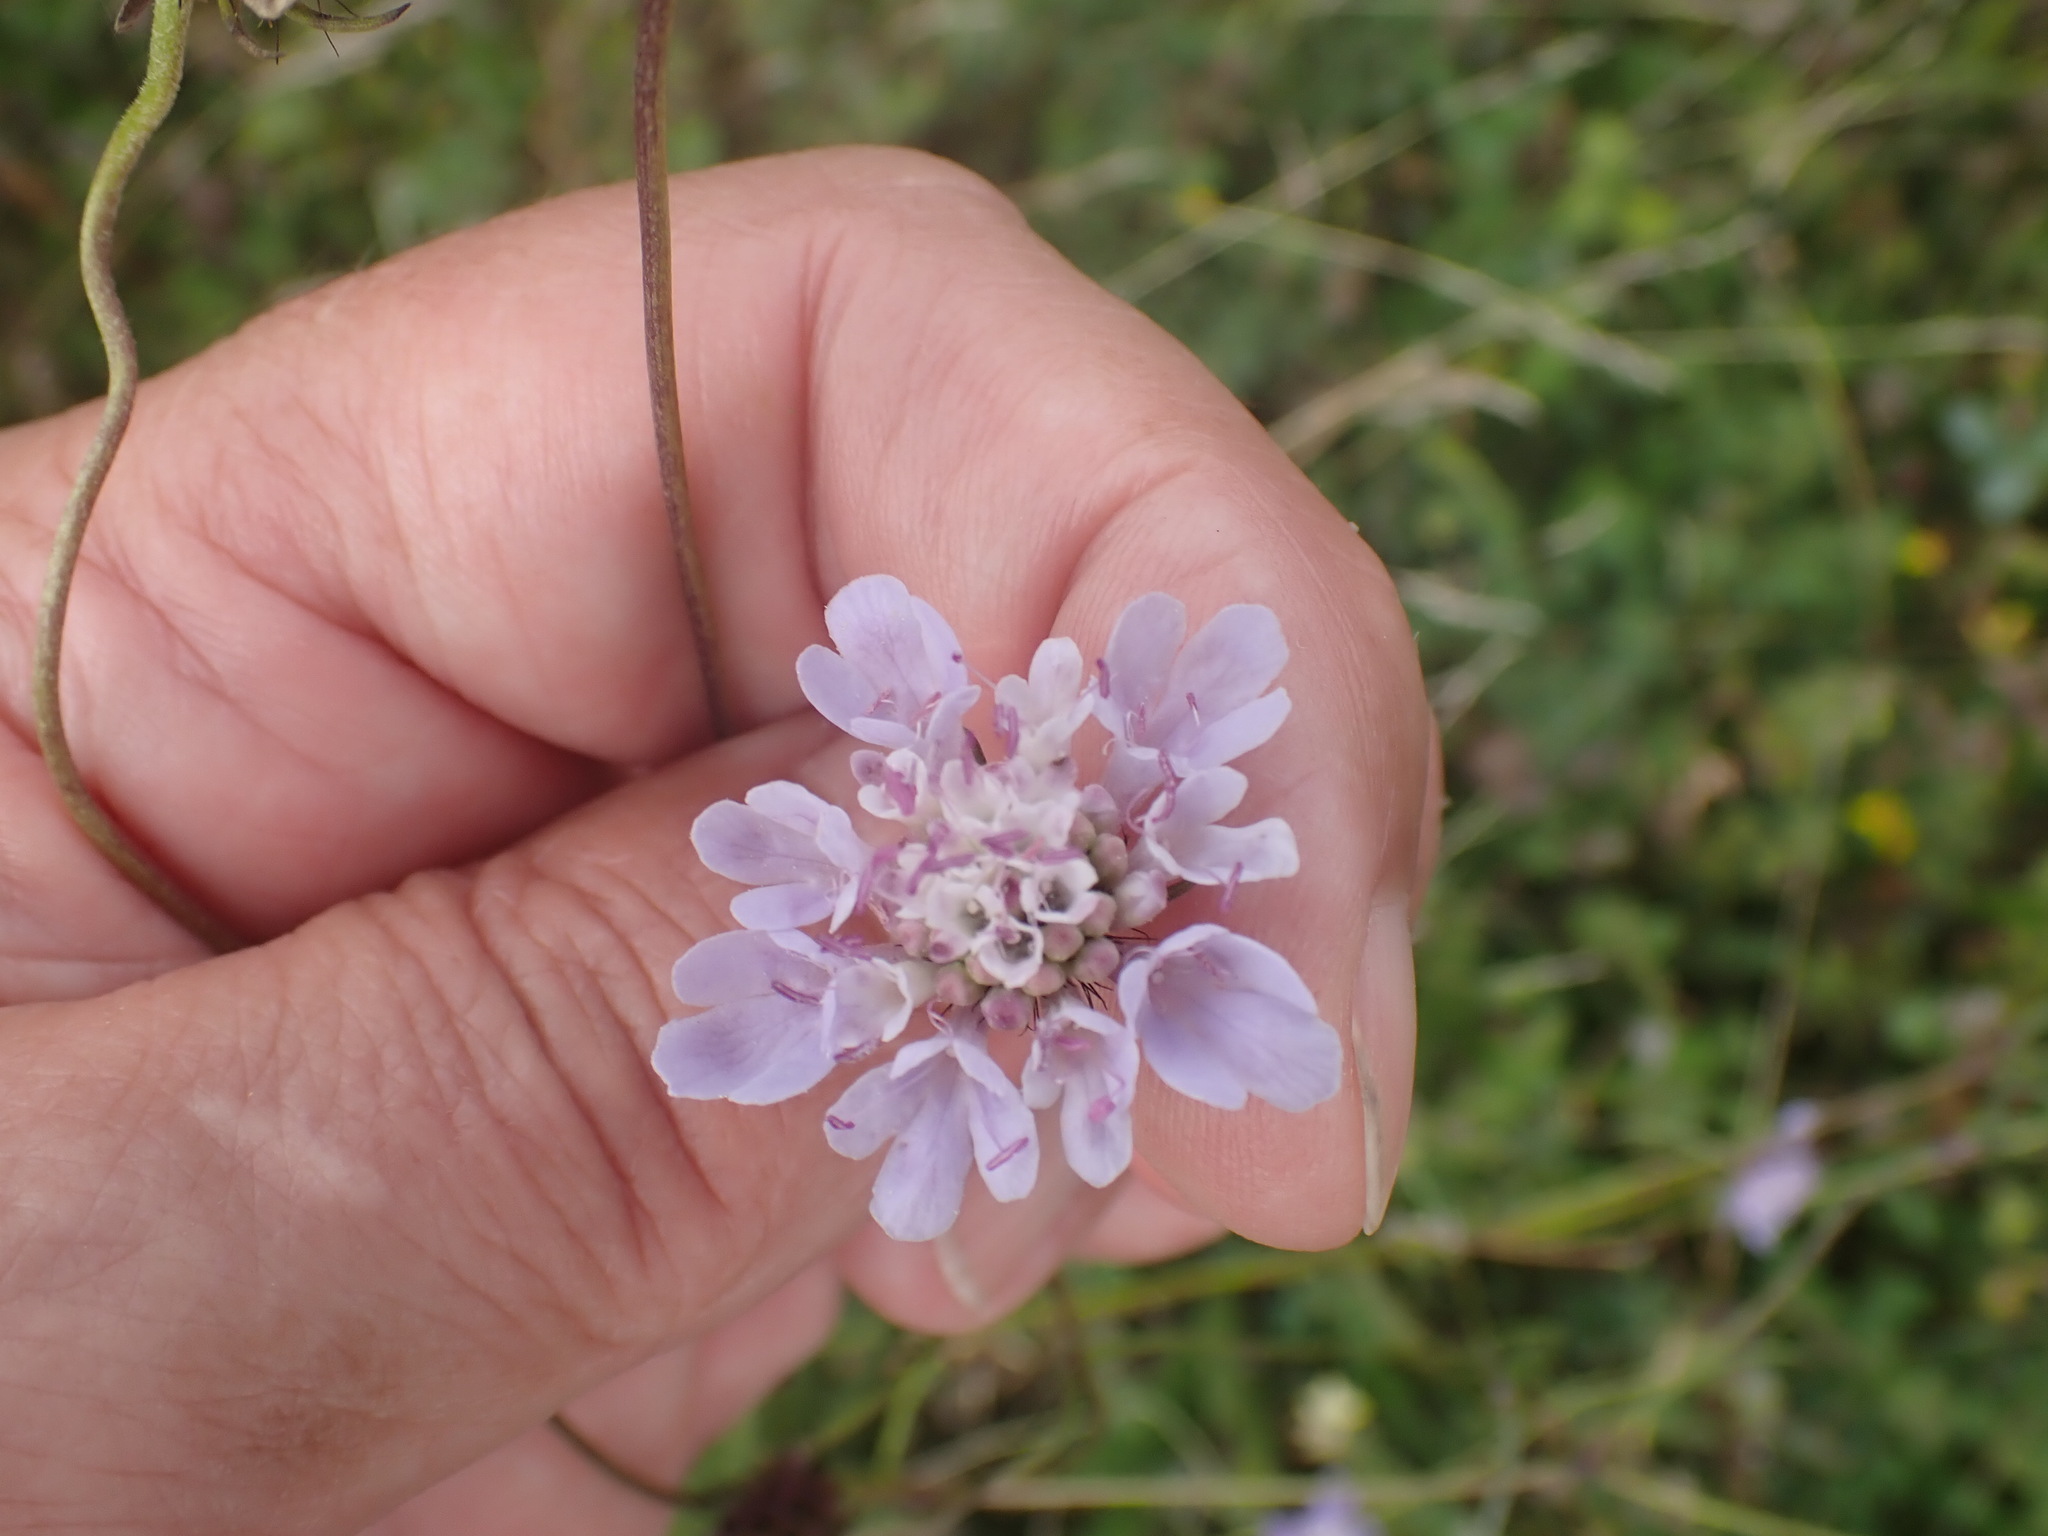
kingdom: Plantae
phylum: Tracheophyta
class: Magnoliopsida
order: Dipsacales
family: Caprifoliaceae
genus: Scabiosa
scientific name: Scabiosa columbaria
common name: Small scabious
